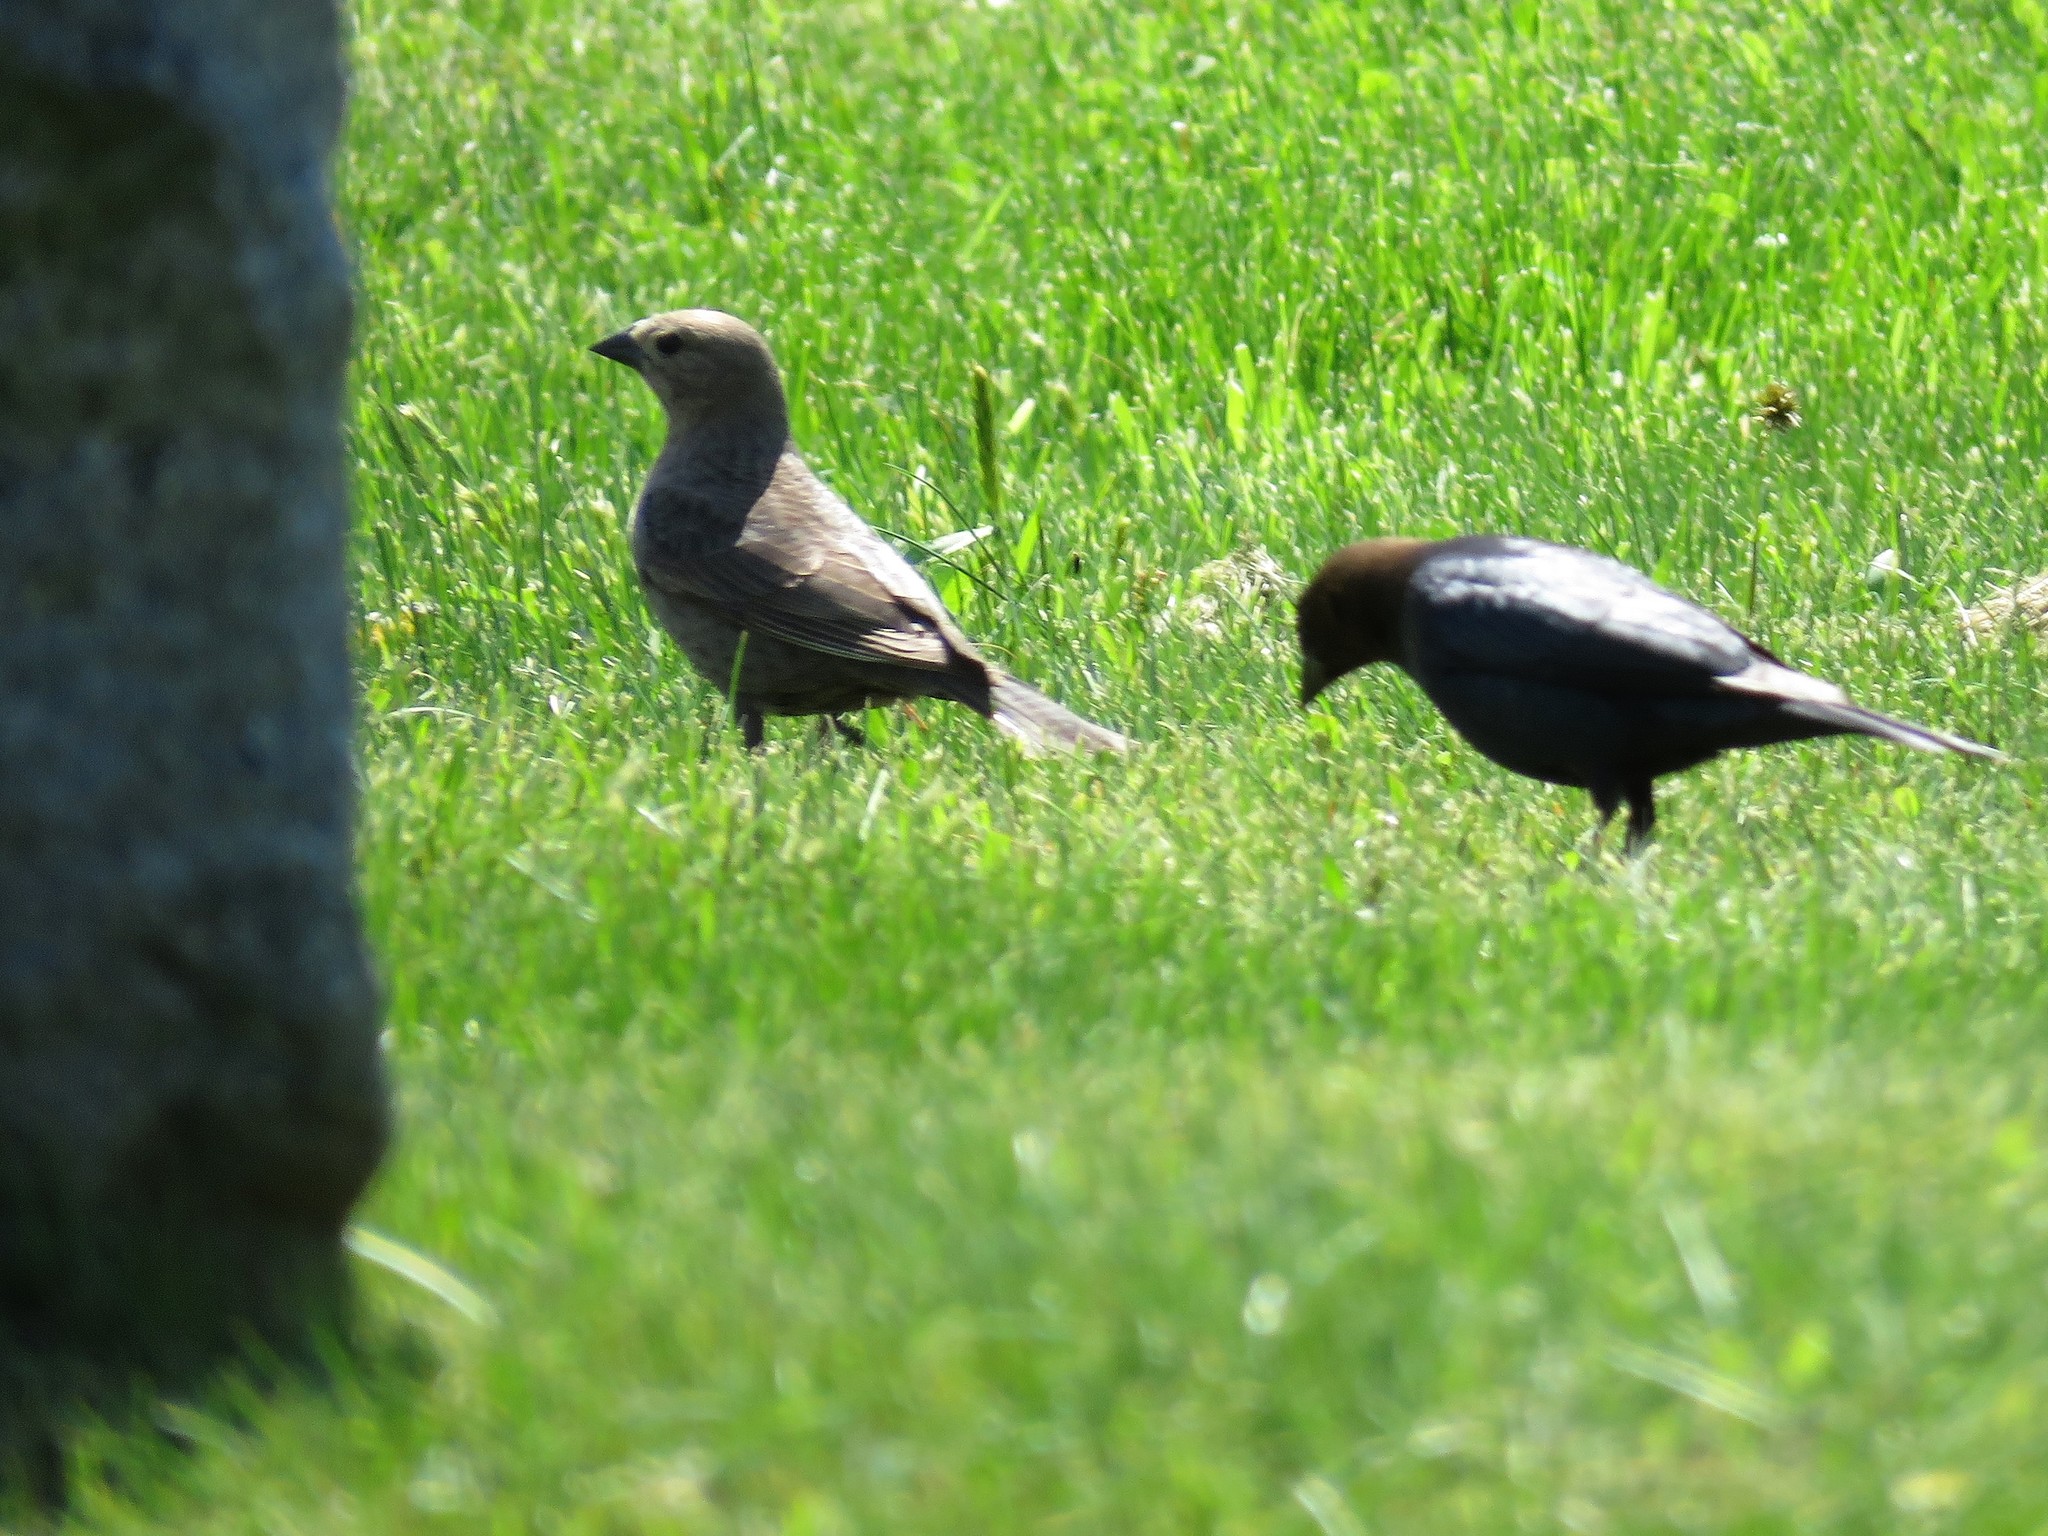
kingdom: Animalia
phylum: Chordata
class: Aves
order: Passeriformes
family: Icteridae
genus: Molothrus
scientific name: Molothrus ater
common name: Brown-headed cowbird
